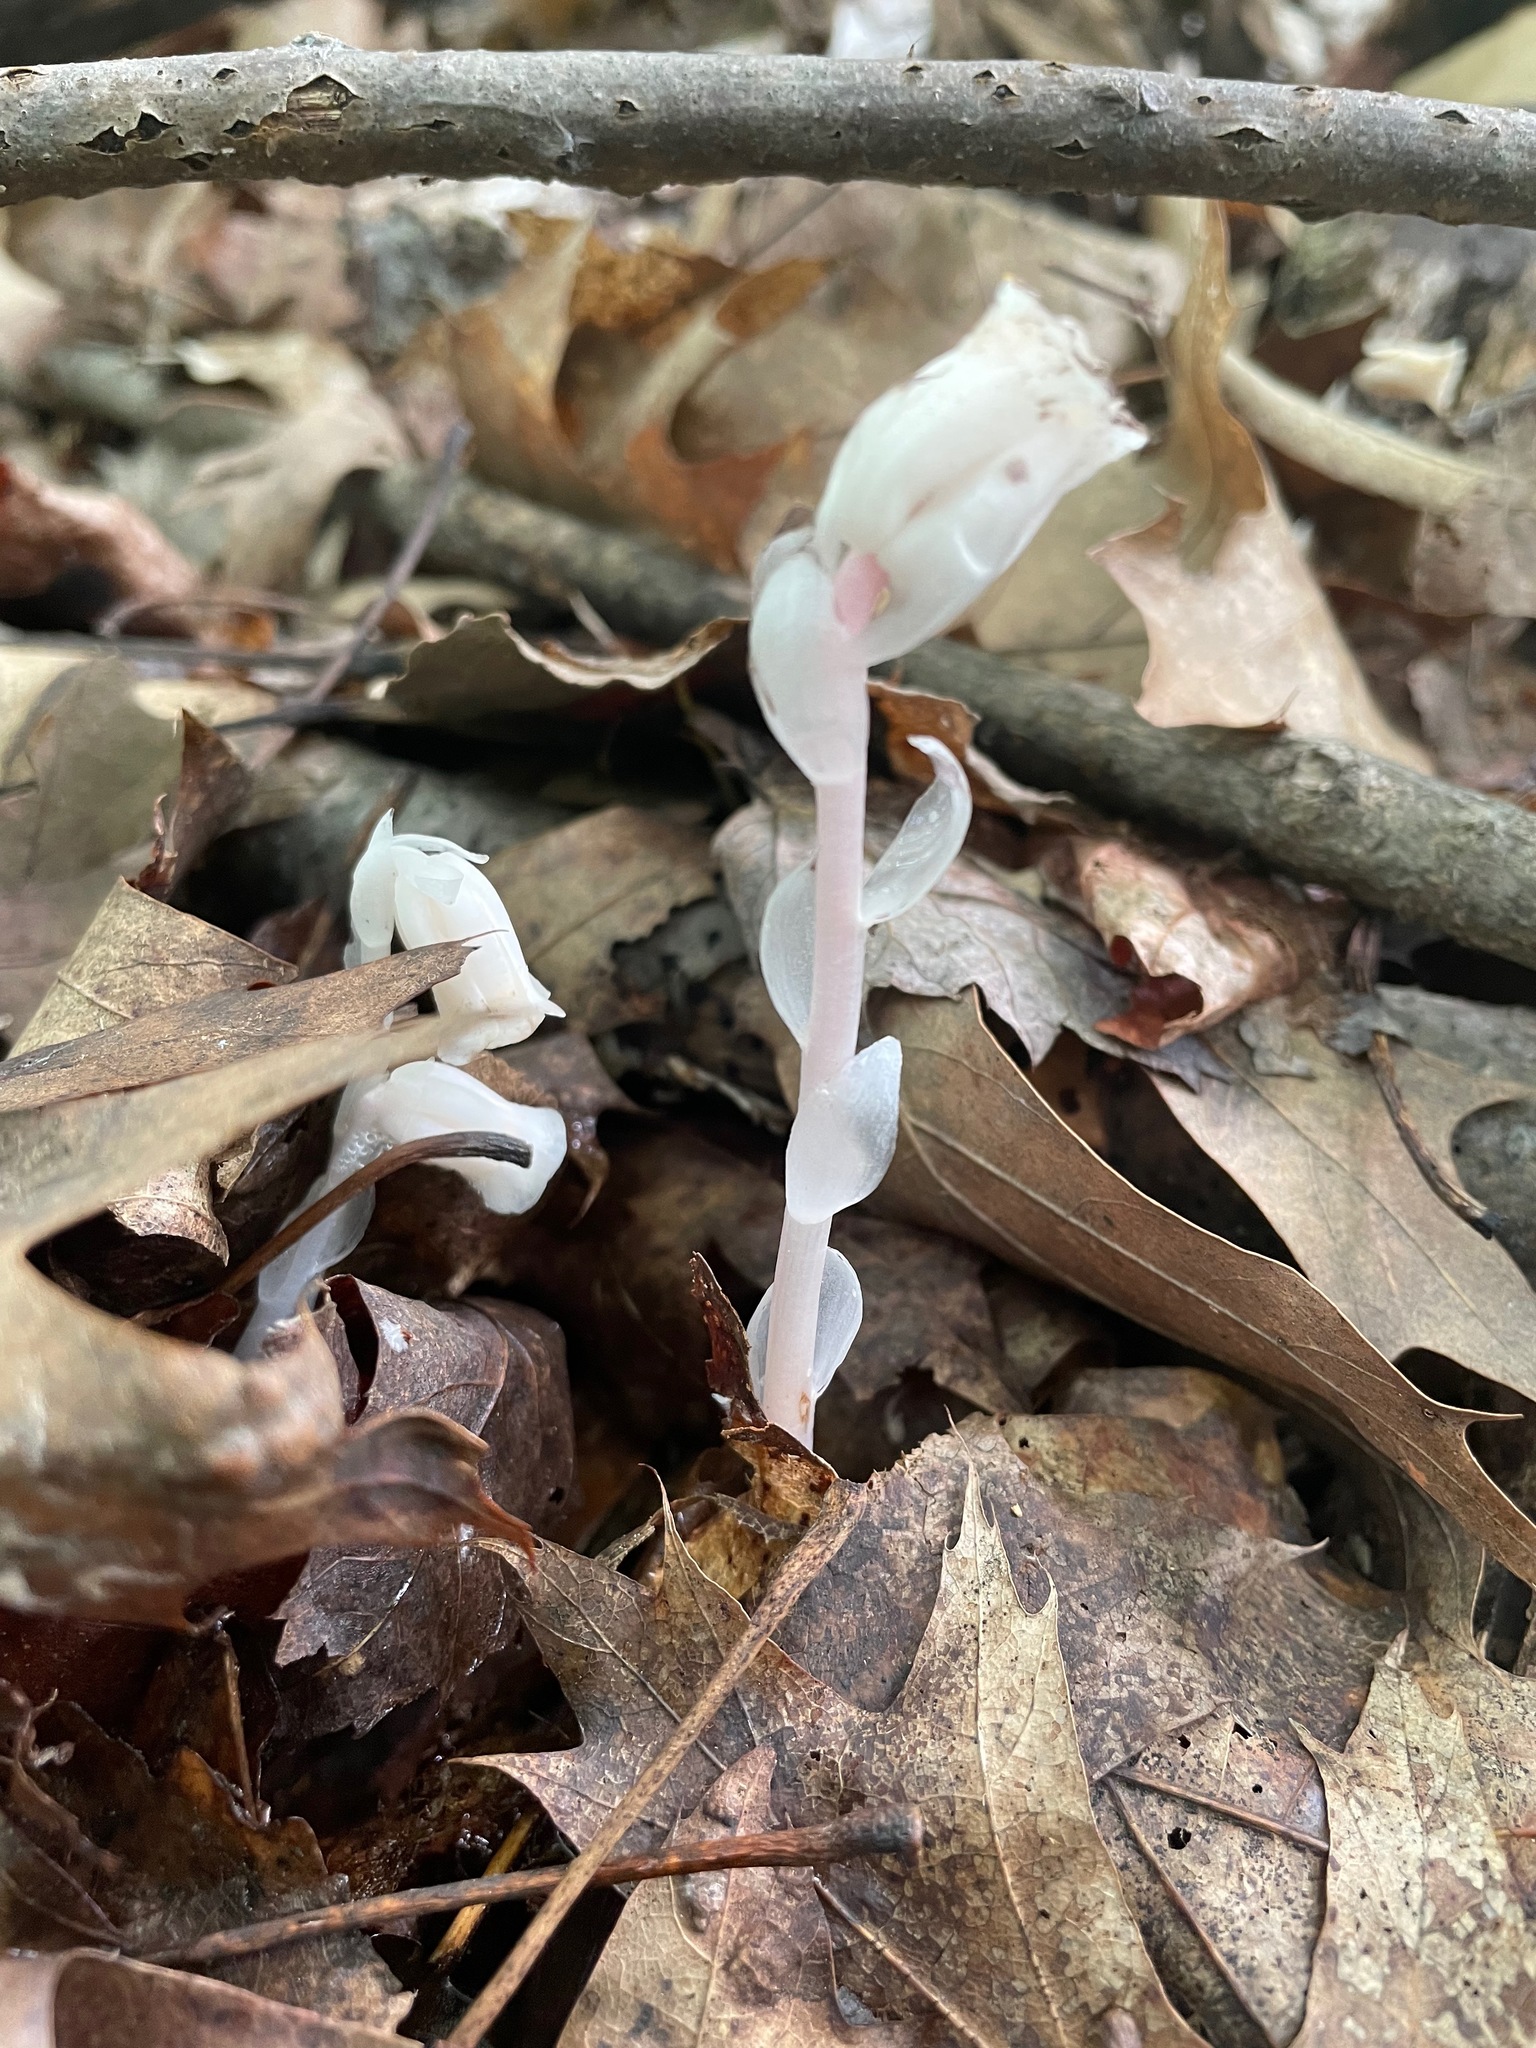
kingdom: Plantae
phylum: Tracheophyta
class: Magnoliopsida
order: Ericales
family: Ericaceae
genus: Monotropa
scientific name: Monotropa uniflora
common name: Convulsion root
